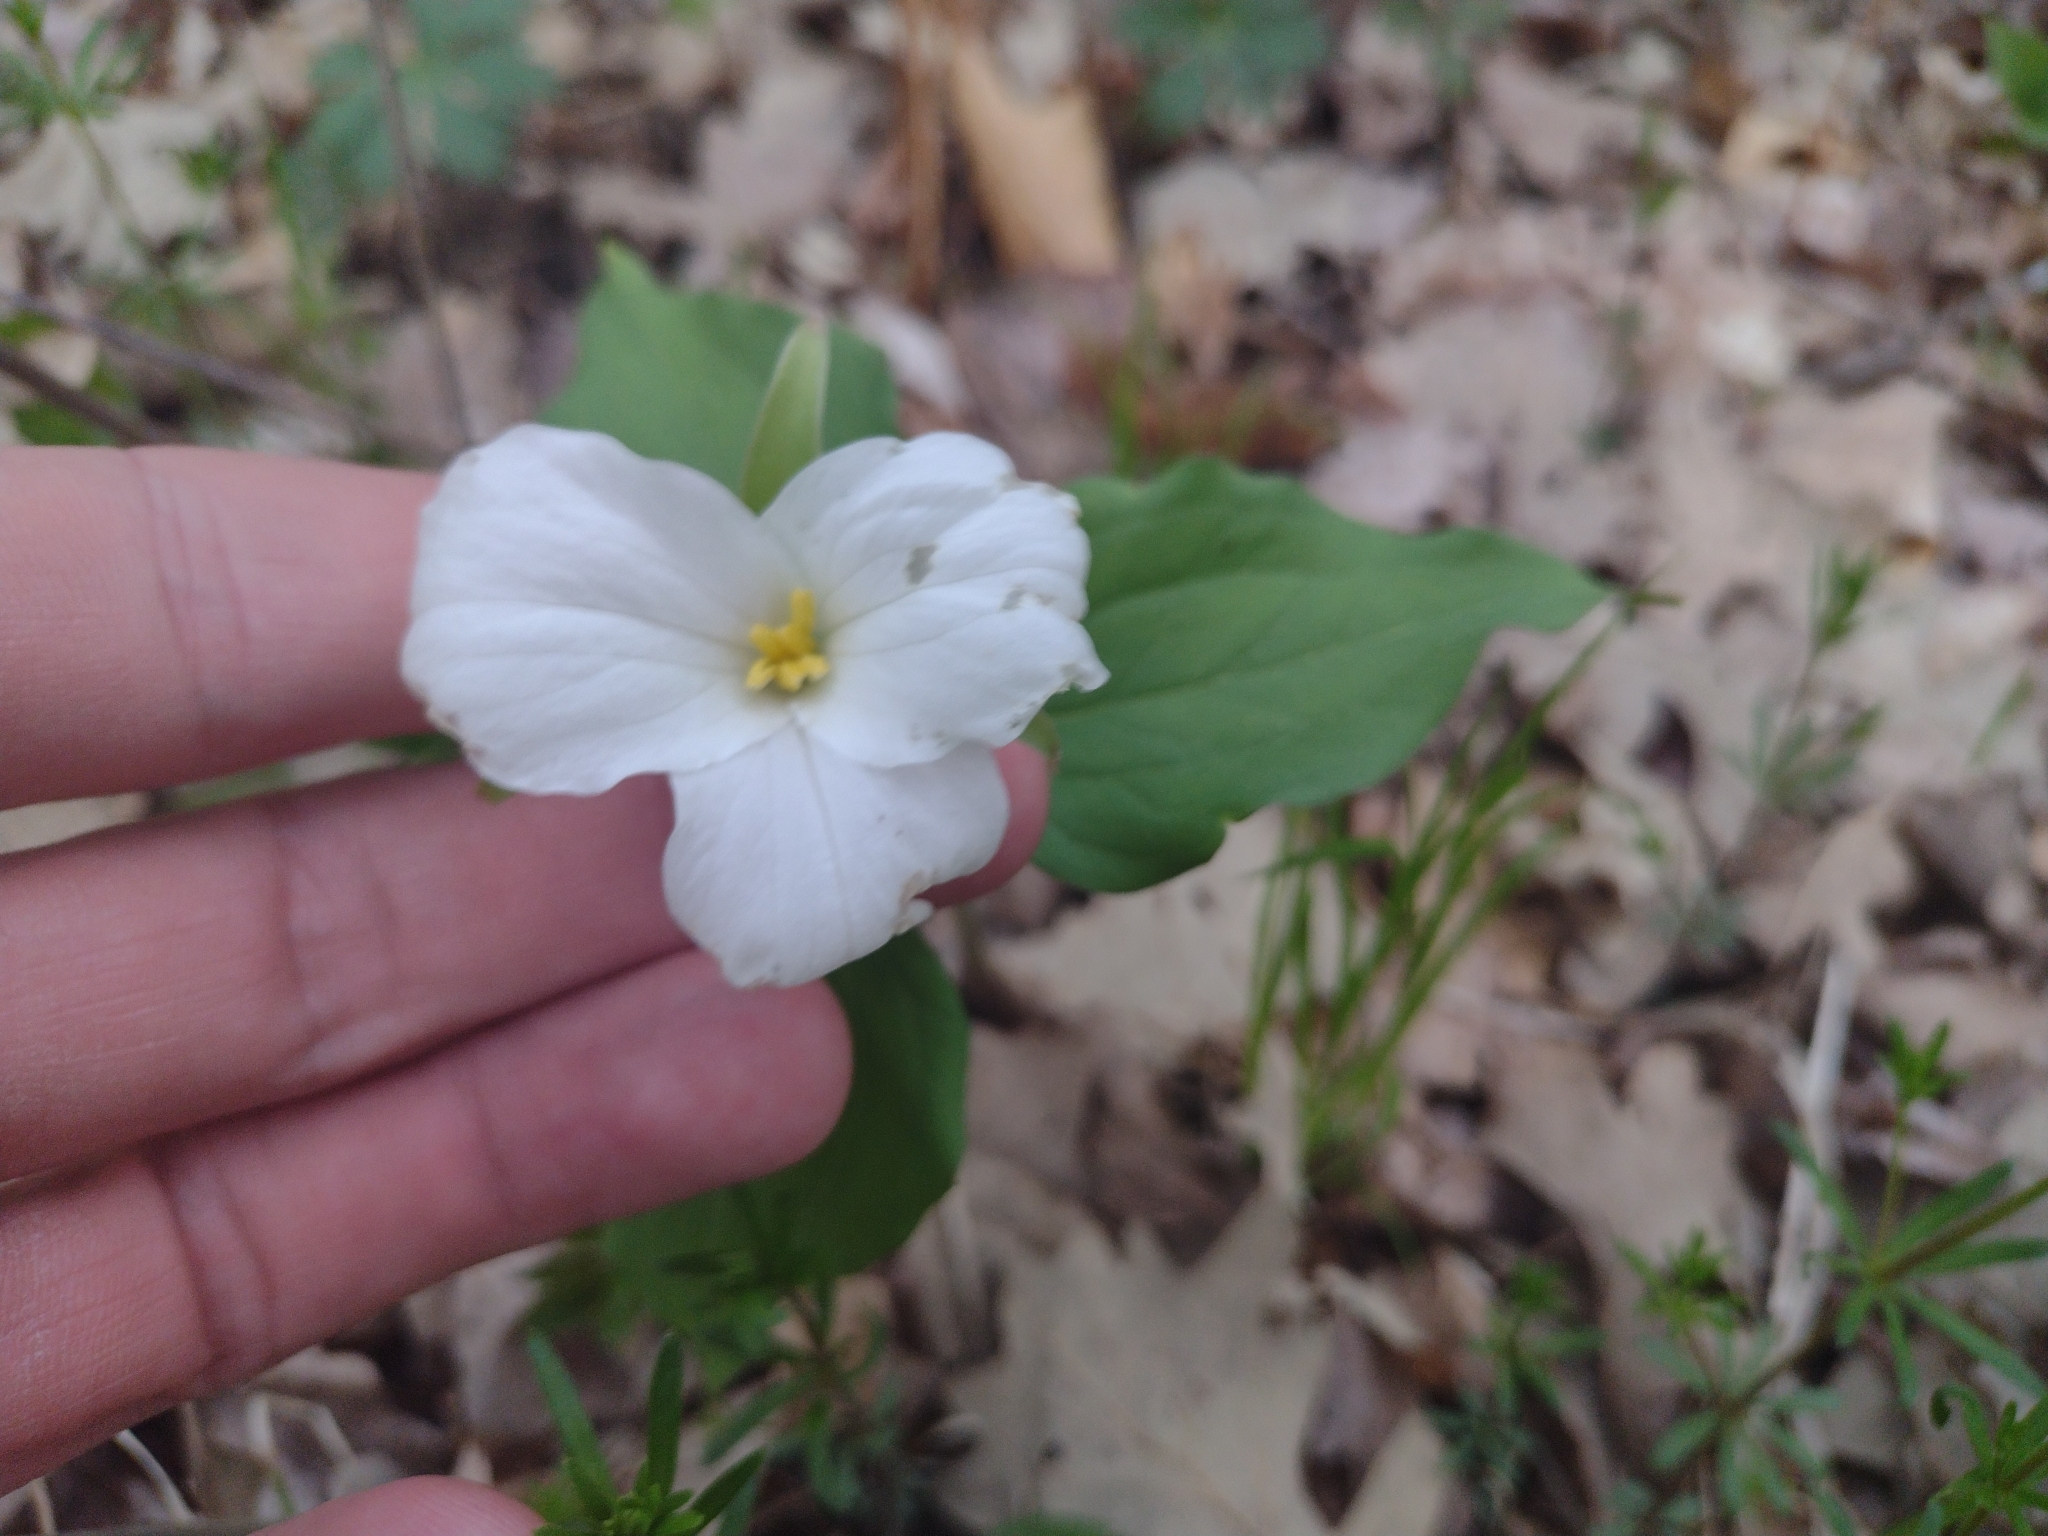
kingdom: Plantae
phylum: Tracheophyta
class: Liliopsida
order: Liliales
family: Melanthiaceae
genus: Trillium
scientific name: Trillium grandiflorum
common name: Great white trillium
